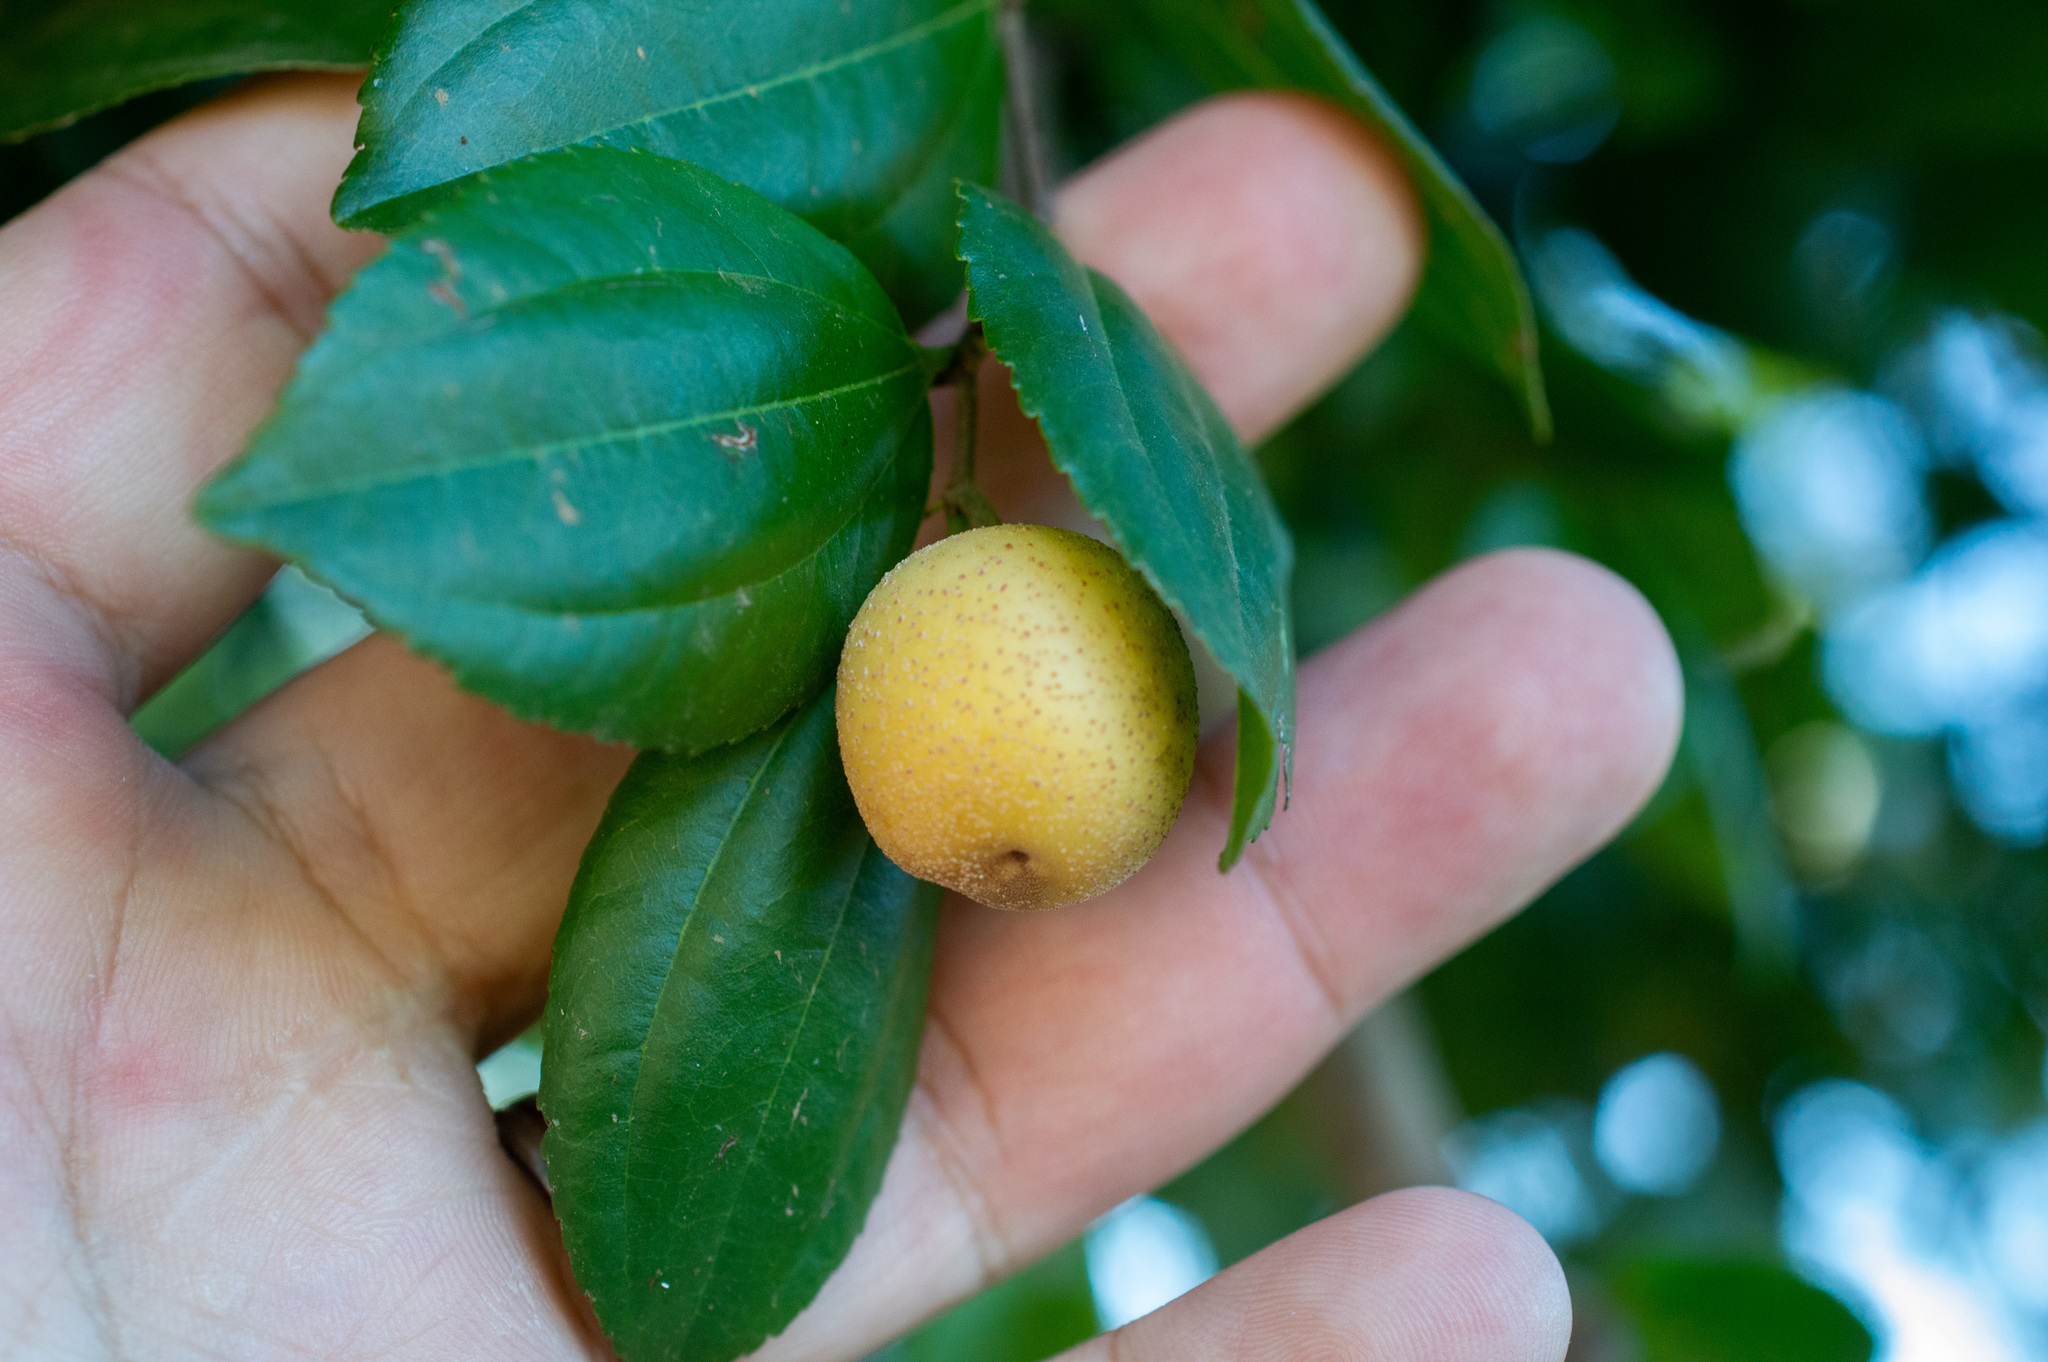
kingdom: Plantae
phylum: Tracheophyta
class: Magnoliopsida
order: Rosales
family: Rhamnaceae
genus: Sarcomphalus
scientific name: Sarcomphalus joazeiro
